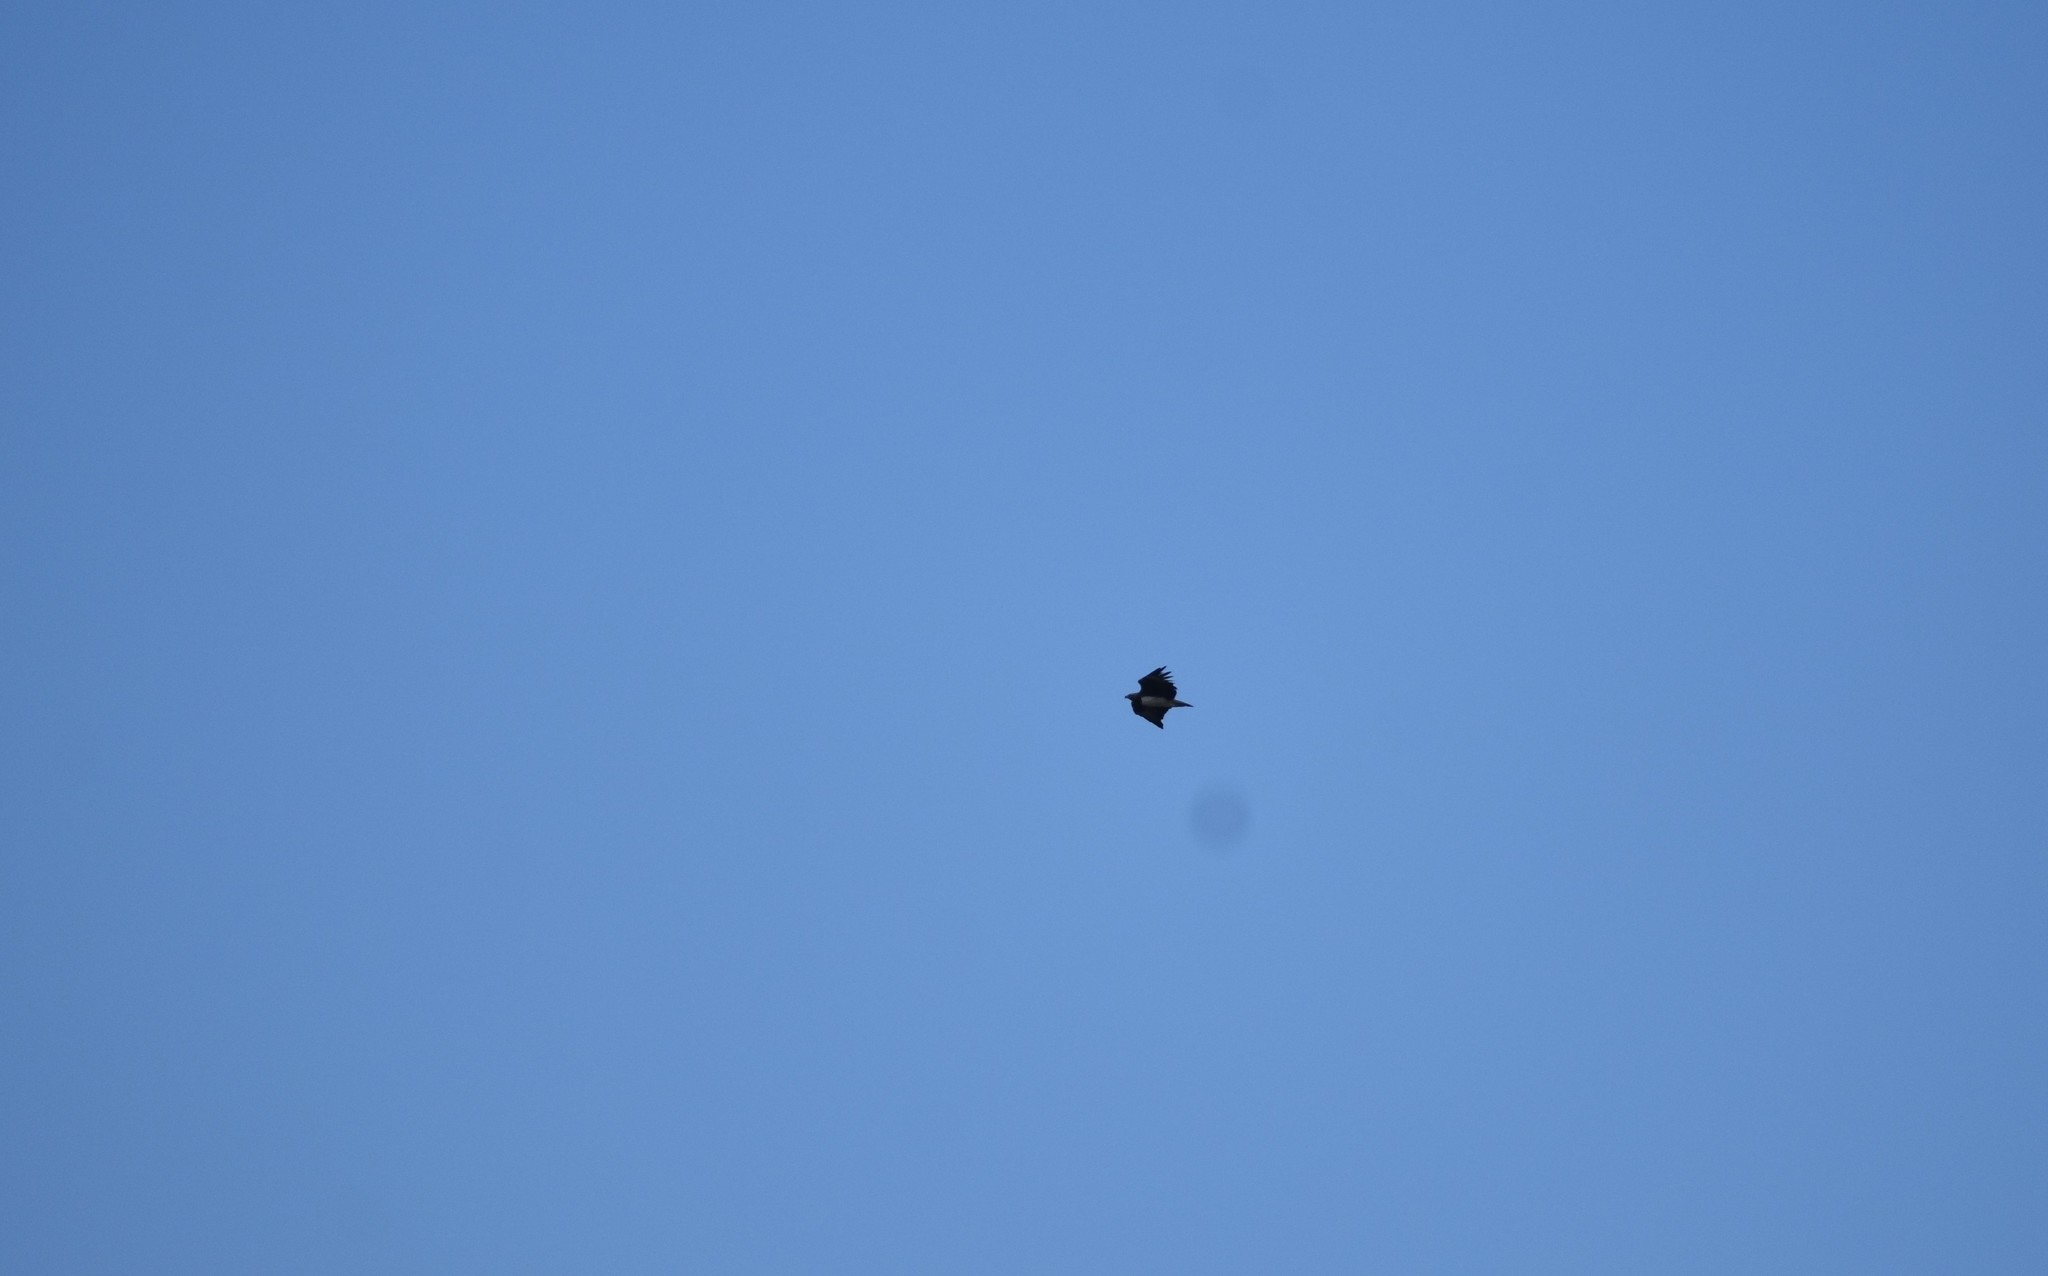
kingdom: Animalia
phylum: Chordata
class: Aves
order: Accipitriformes
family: Accipitridae
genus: Polemaetus
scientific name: Polemaetus bellicosus
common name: Martial eagle
